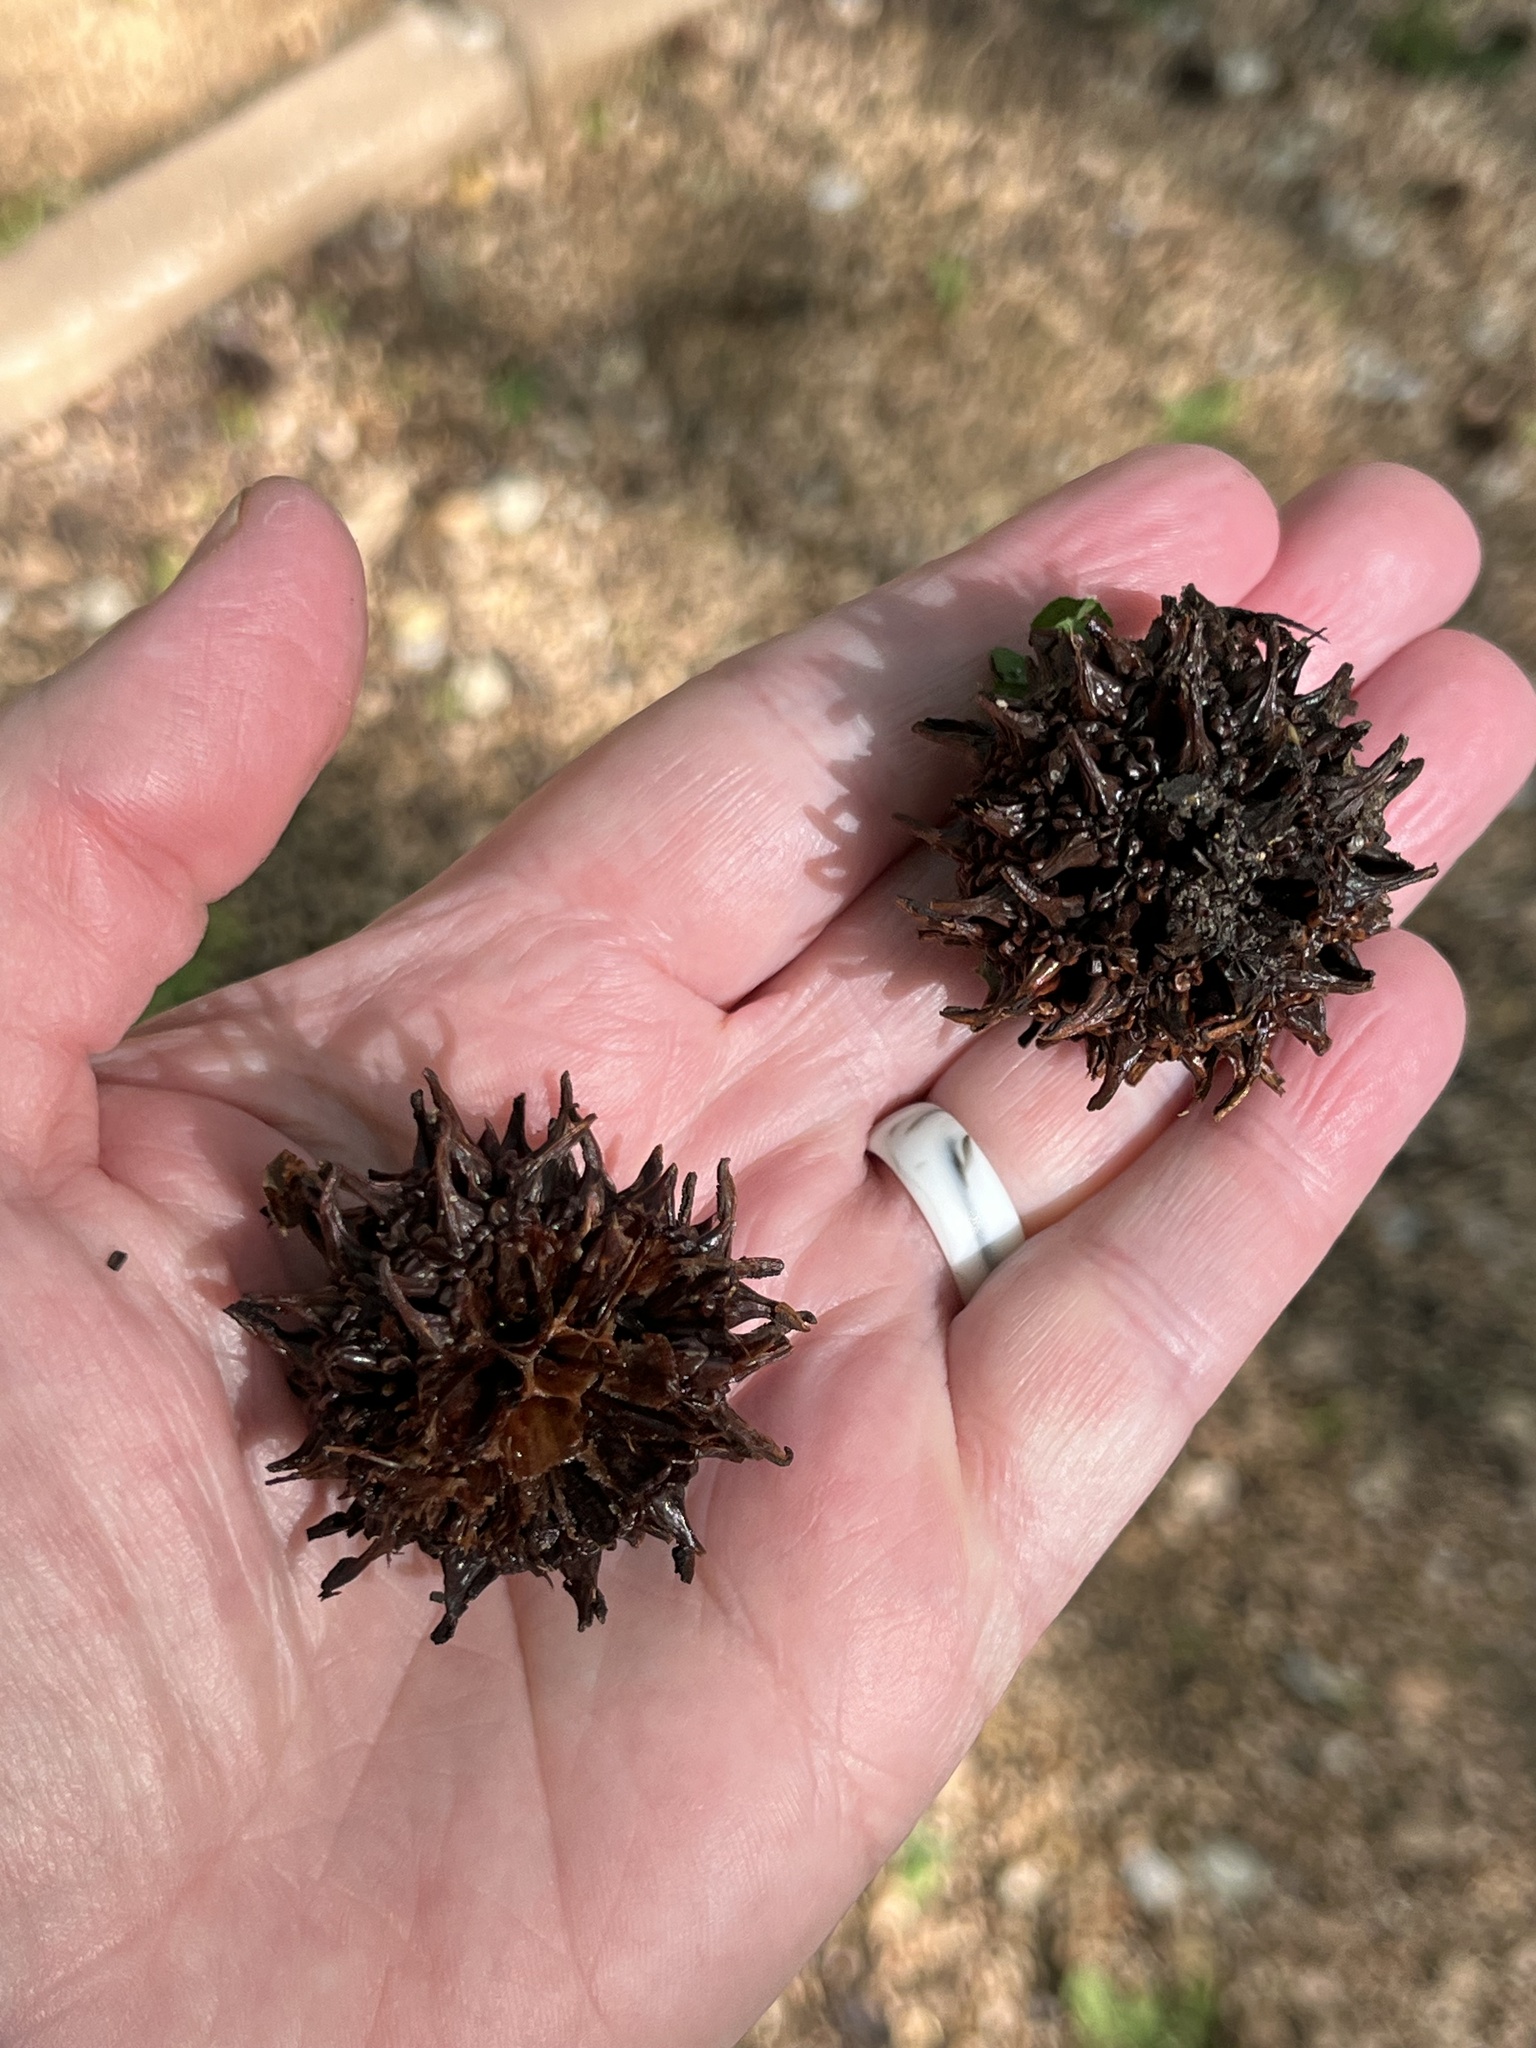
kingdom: Plantae
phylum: Tracheophyta
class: Magnoliopsida
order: Saxifragales
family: Altingiaceae
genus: Liquidambar
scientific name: Liquidambar styraciflua
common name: Sweet gum
